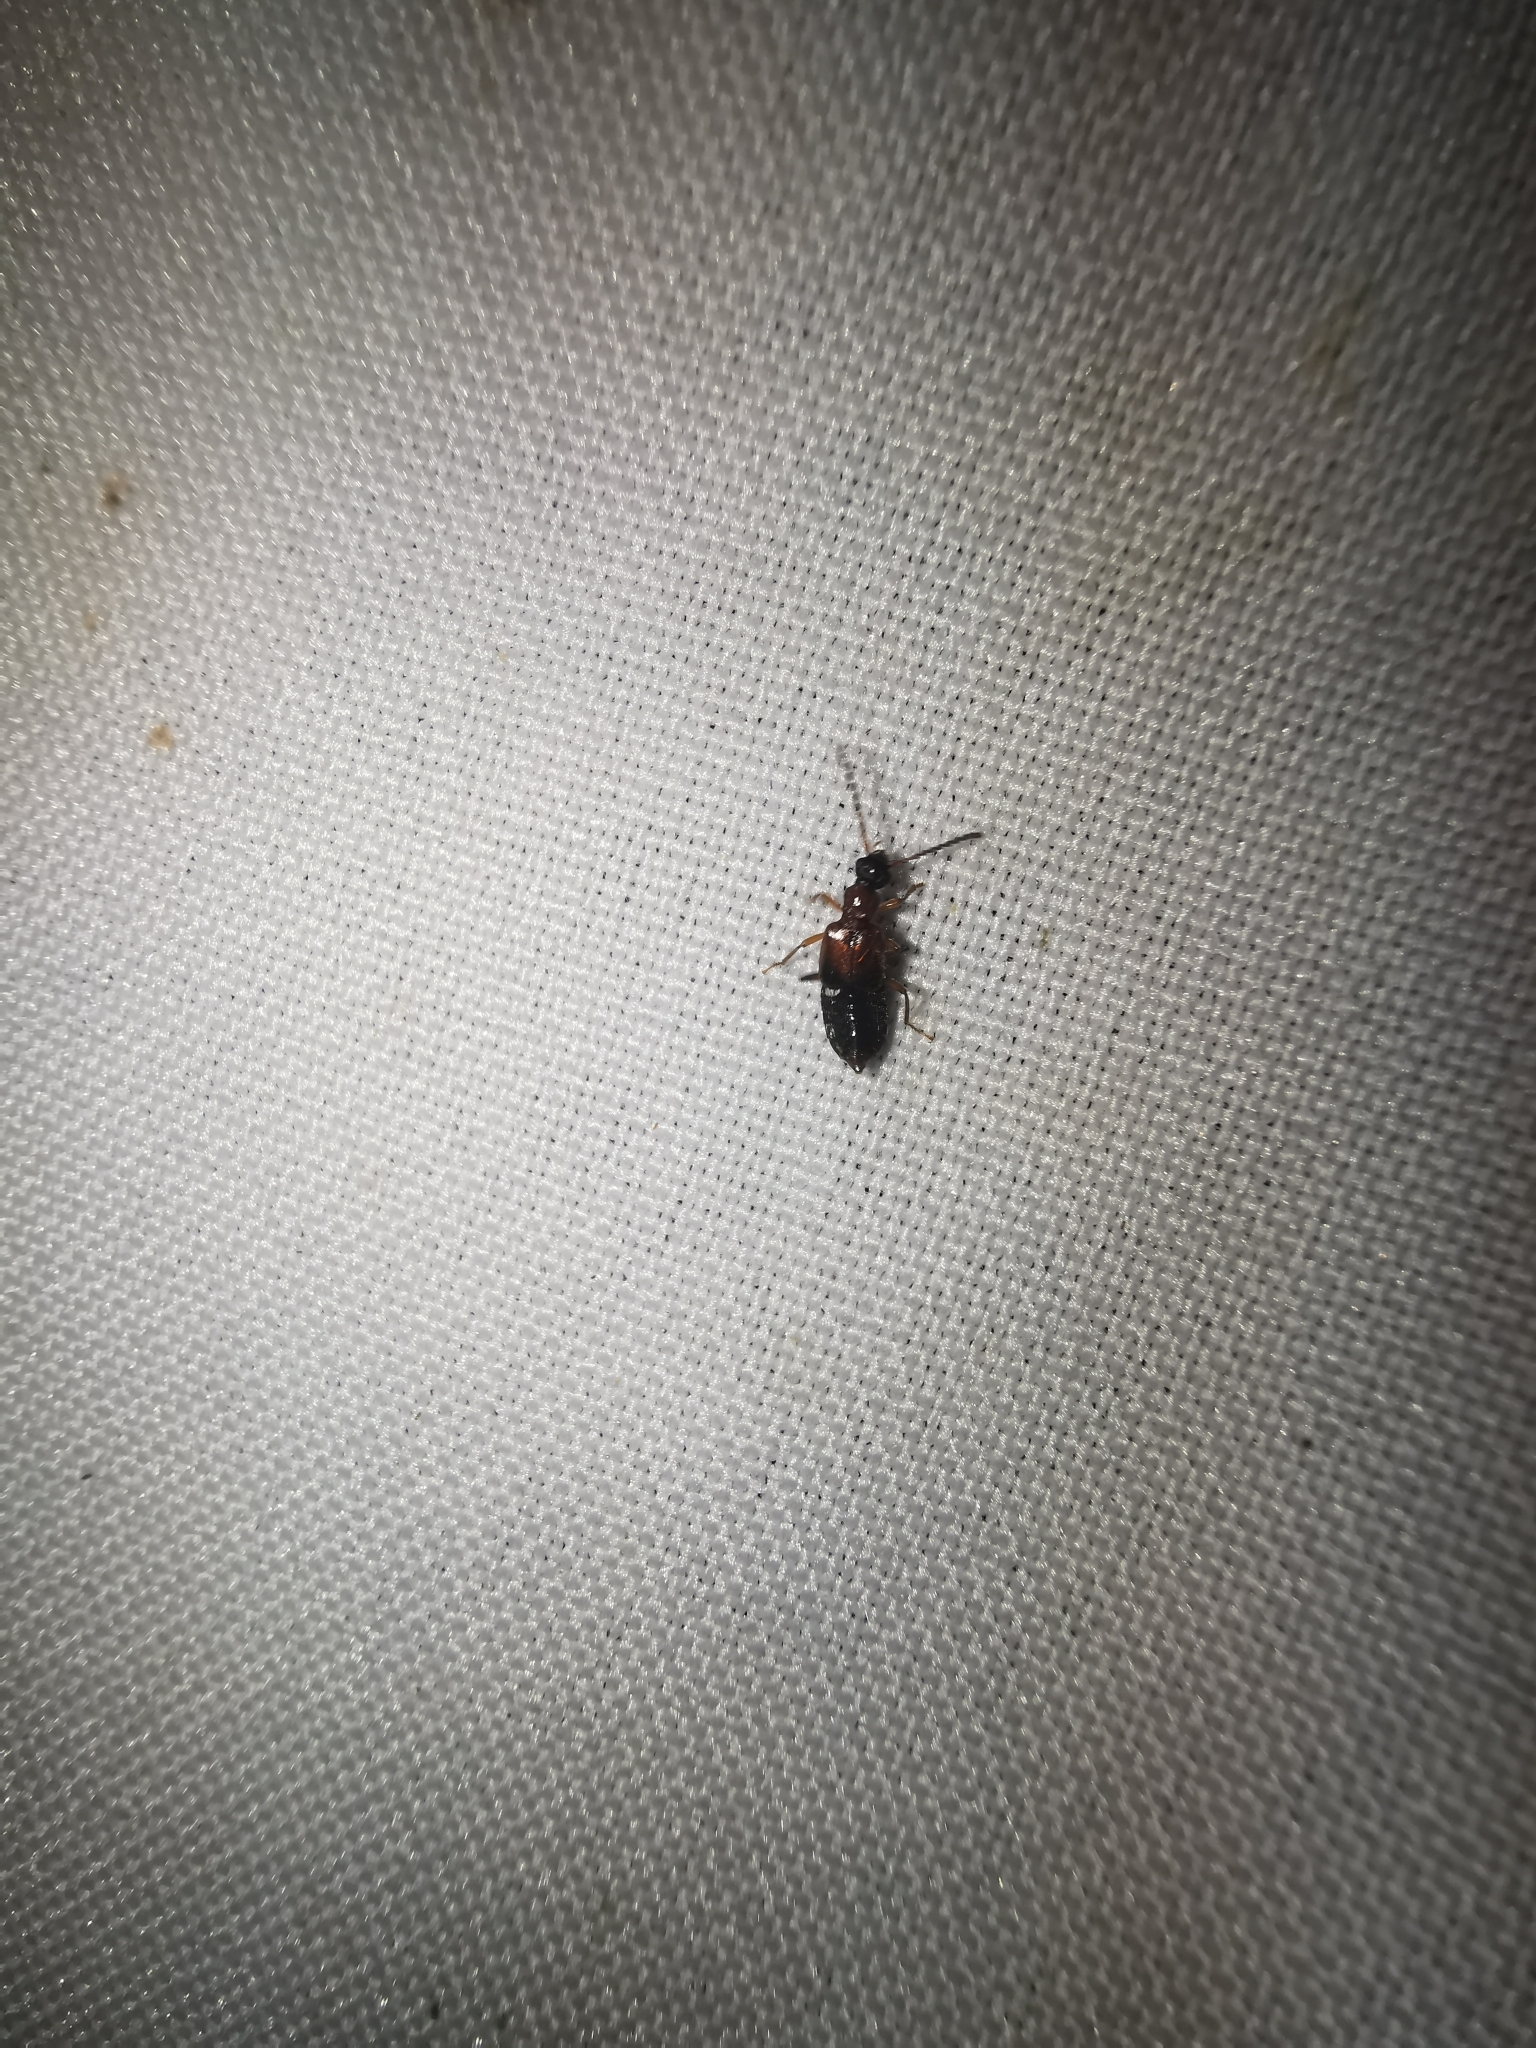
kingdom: Animalia
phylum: Arthropoda
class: Insecta
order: Coleoptera
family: Staphylinidae
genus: Deleaster
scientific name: Deleaster dichrous
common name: Rove beetle
